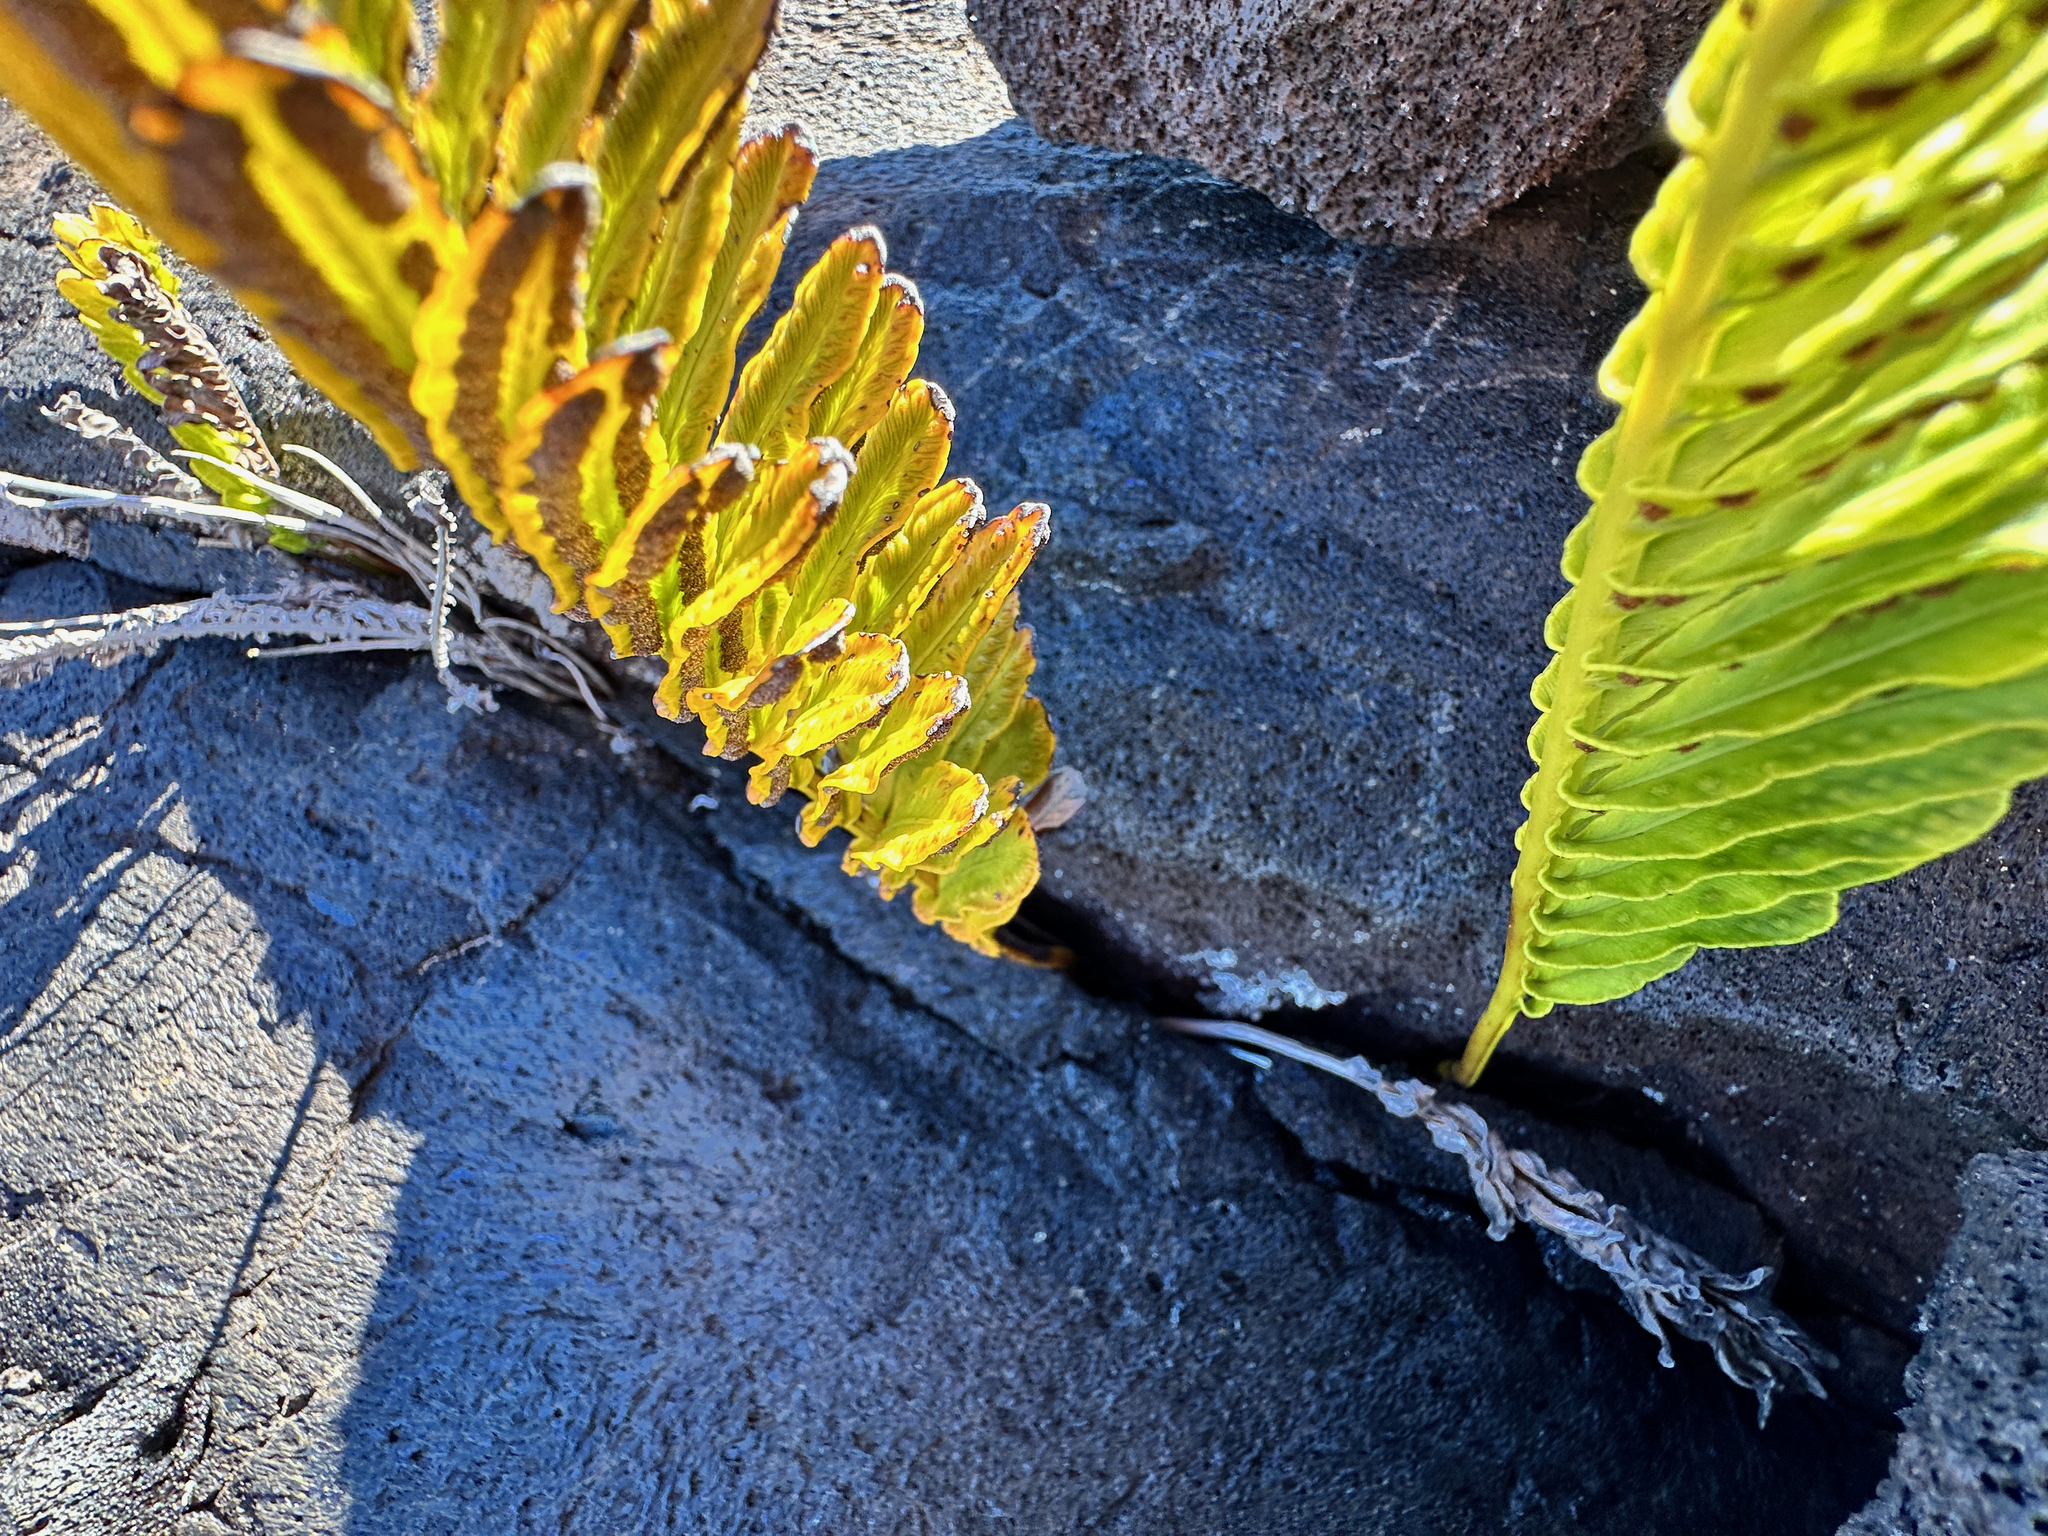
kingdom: Plantae
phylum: Tracheophyta
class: Polypodiopsida
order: Polypodiales
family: Polypodiaceae
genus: Polypodium
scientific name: Polypodium pellucidum
